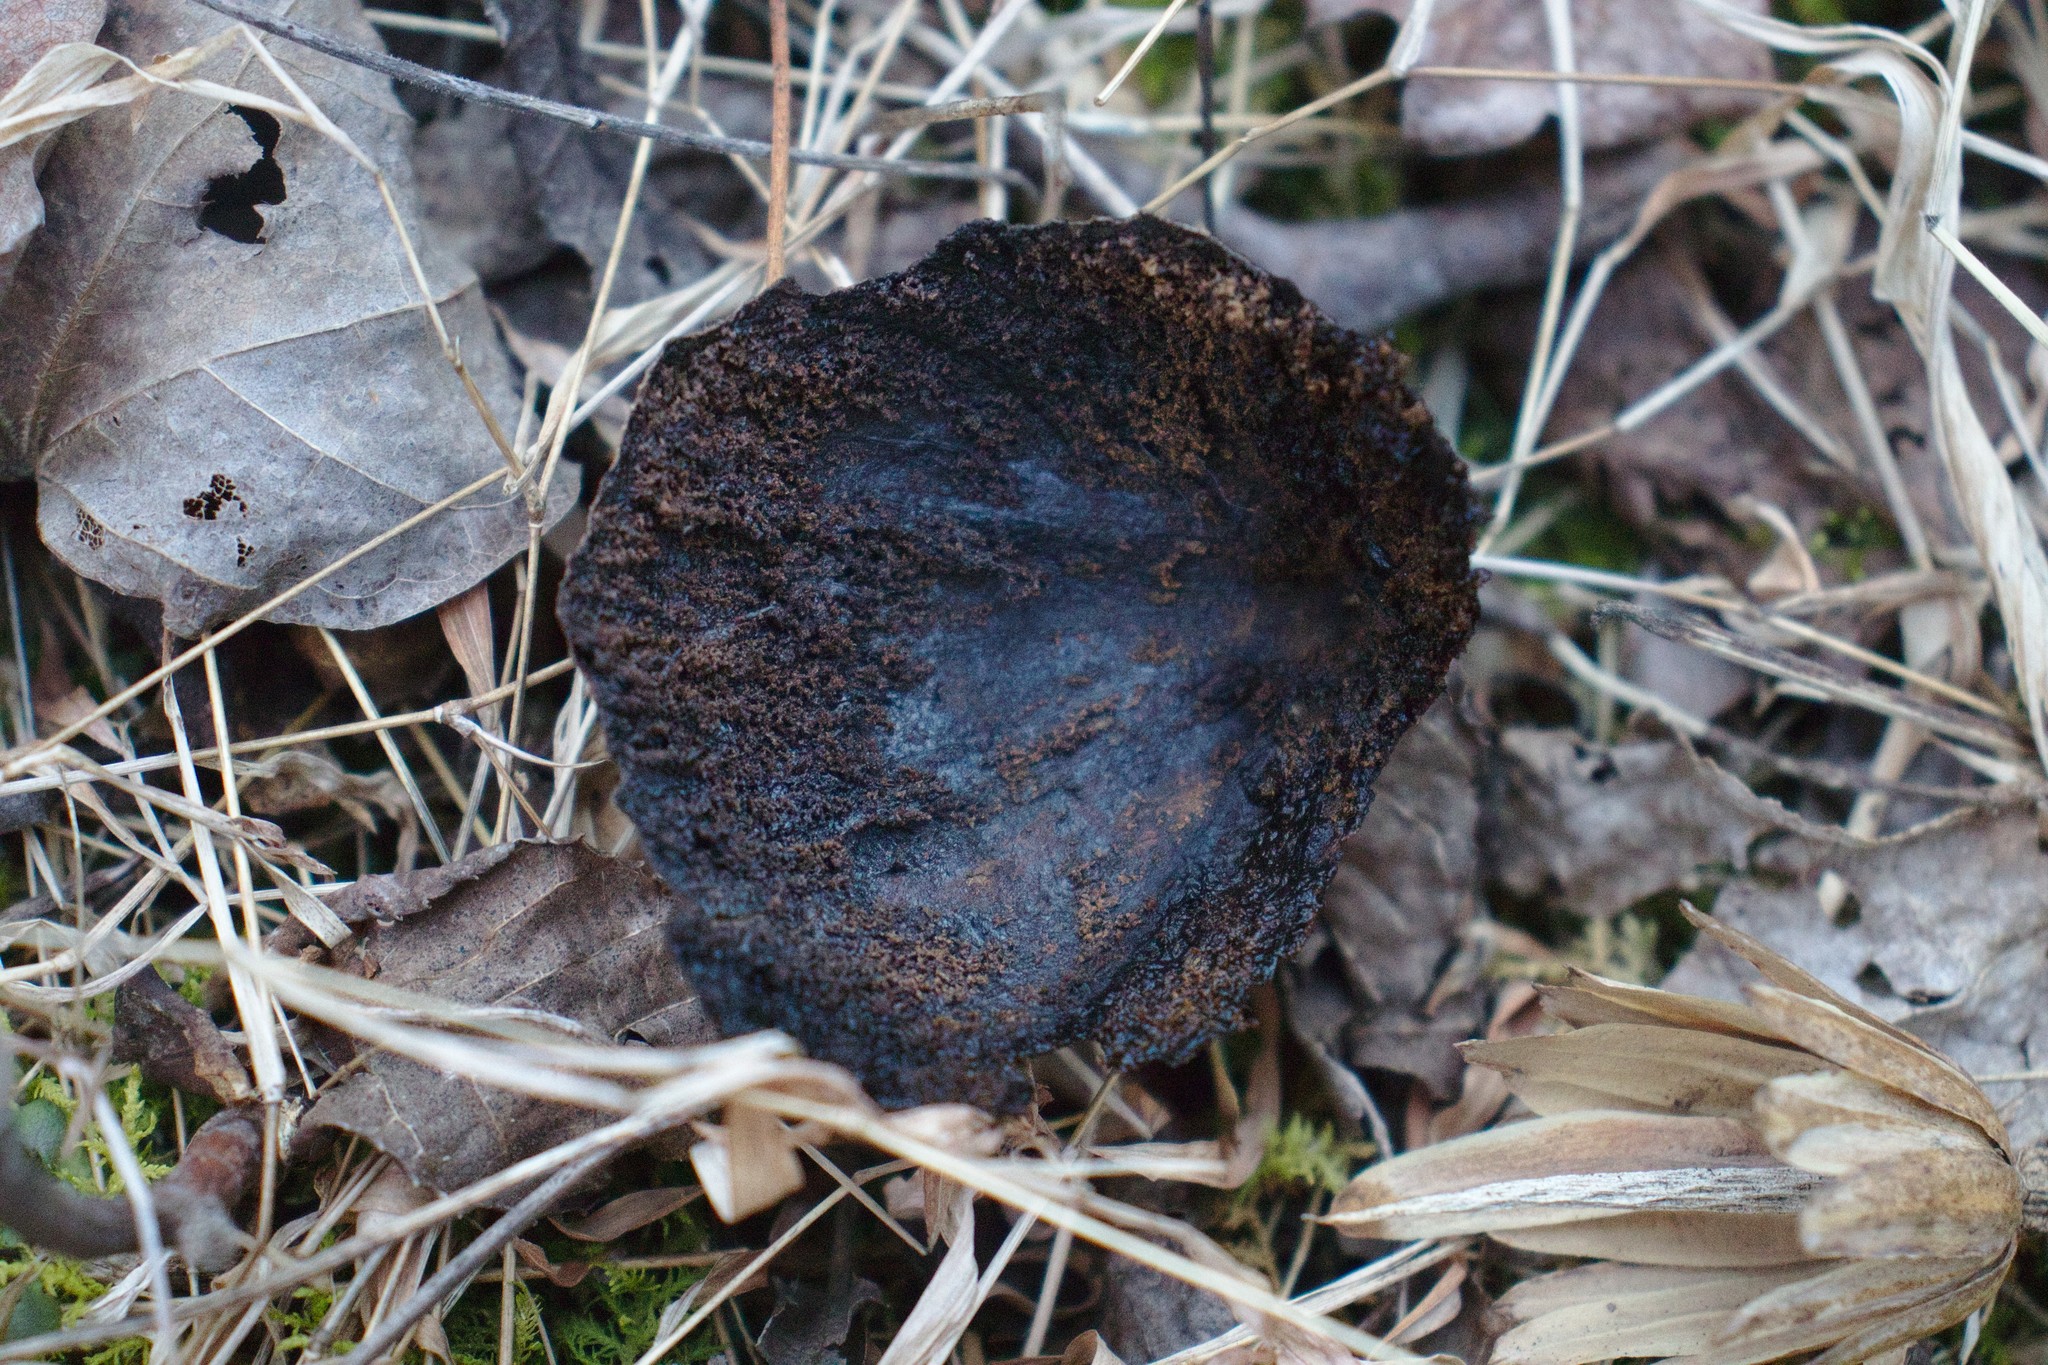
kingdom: Plantae
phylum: Tracheophyta
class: Magnoliopsida
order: Fagales
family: Juglandaceae
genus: Juglans
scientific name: Juglans nigra
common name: Black walnut
